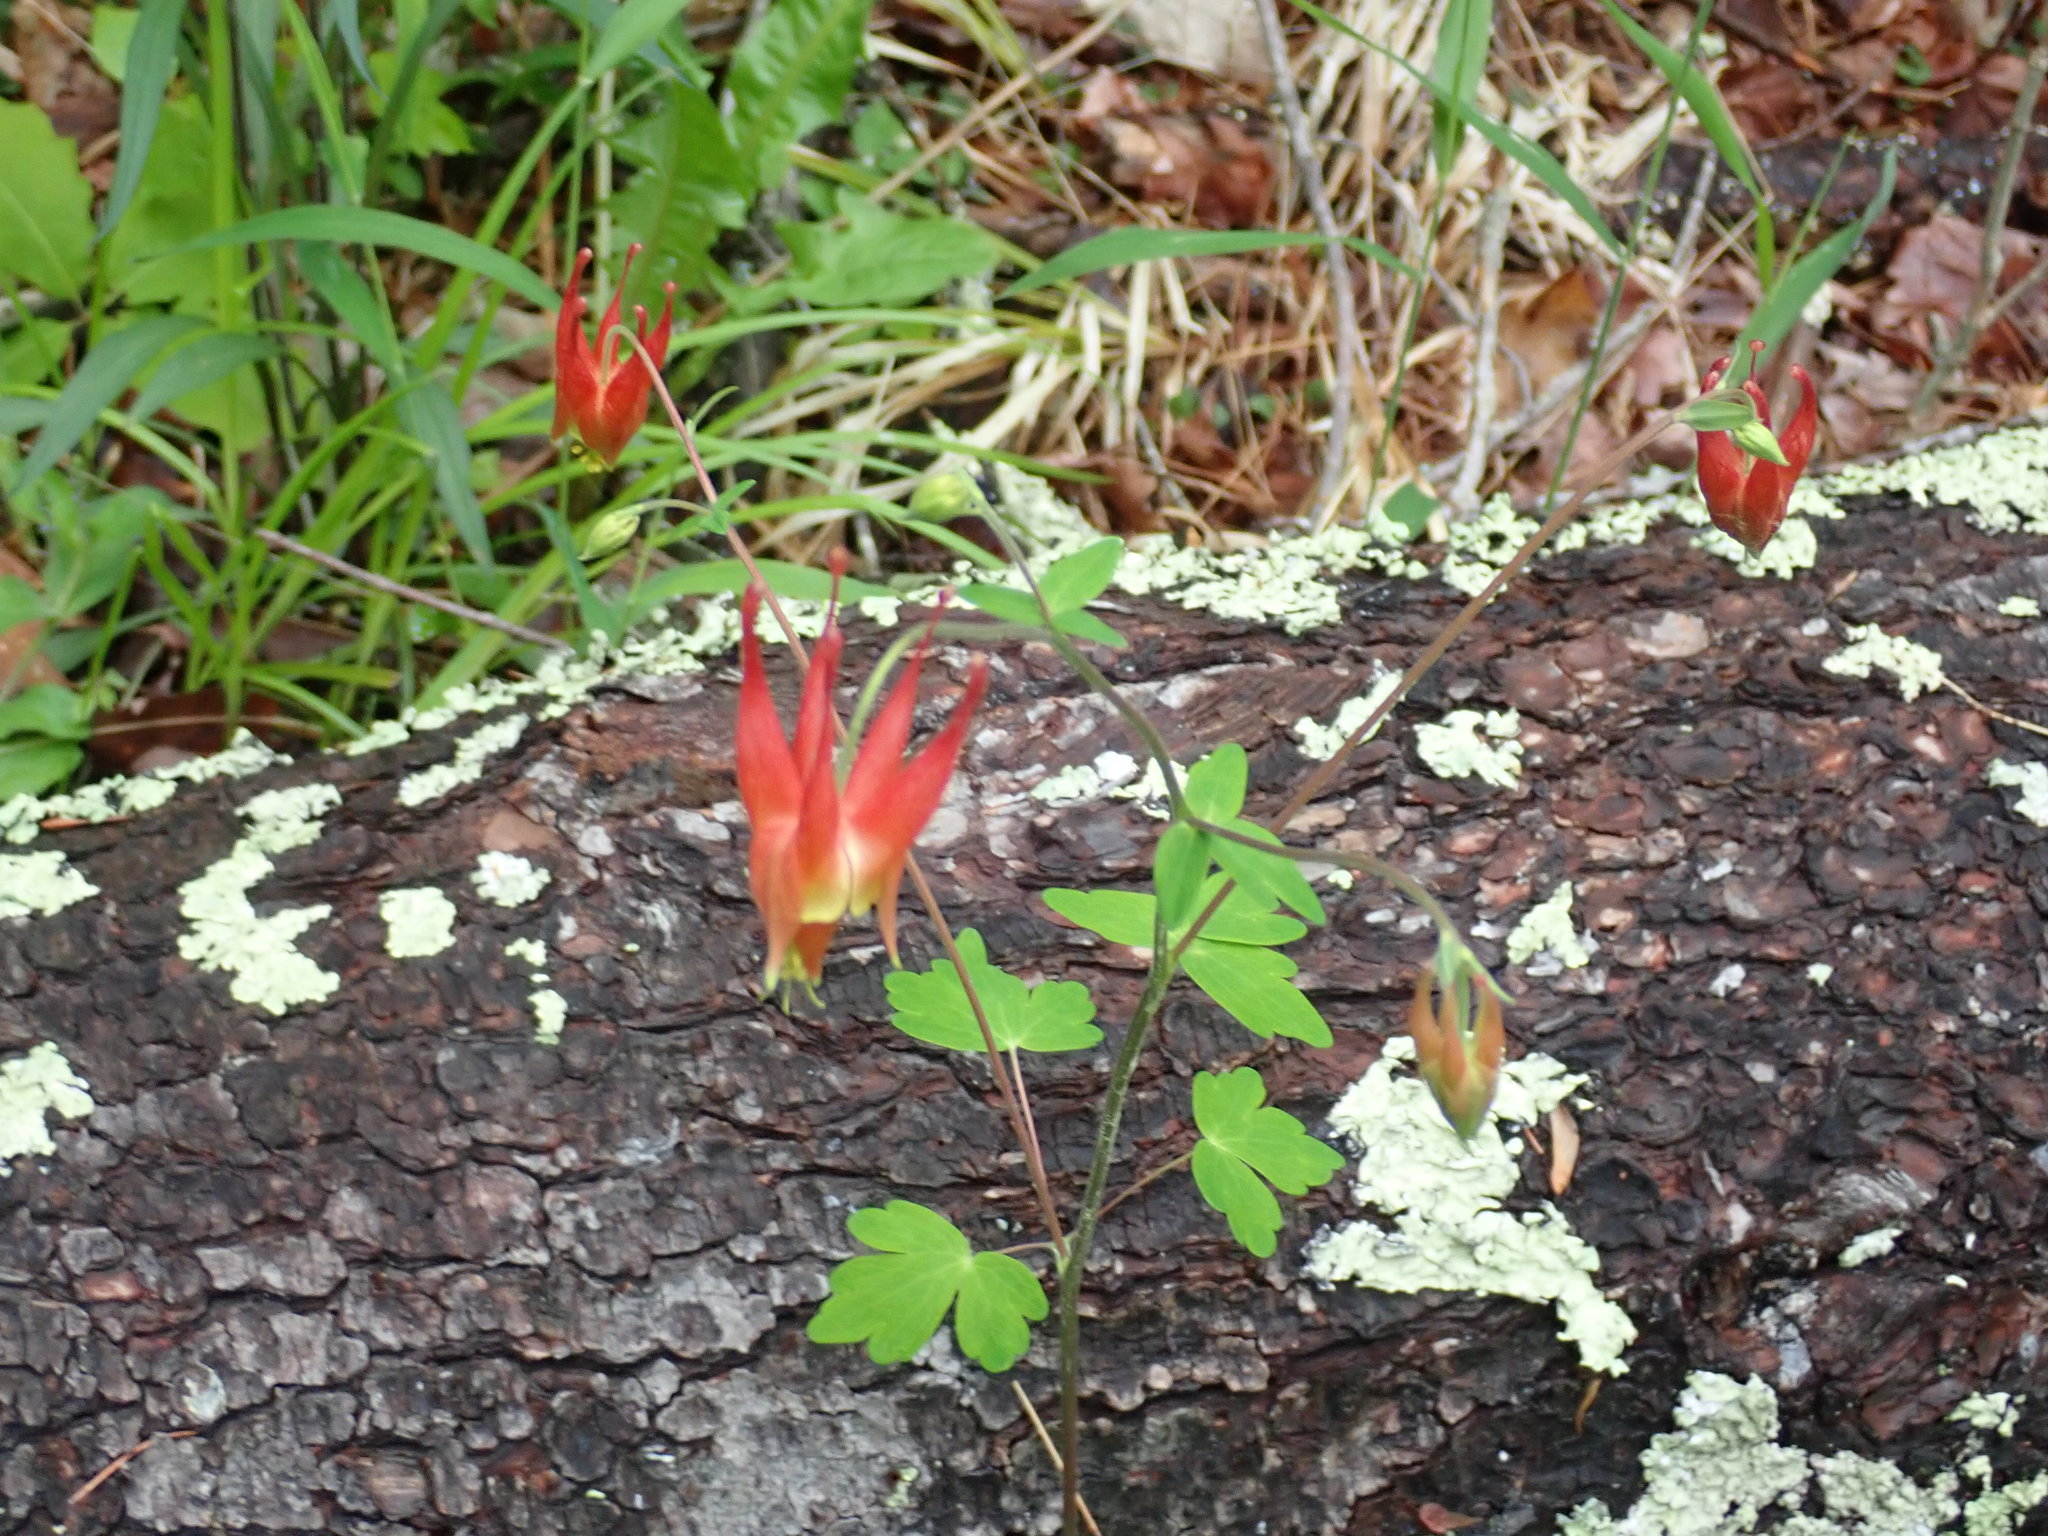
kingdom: Plantae
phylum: Tracheophyta
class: Magnoliopsida
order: Ranunculales
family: Ranunculaceae
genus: Aquilegia
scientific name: Aquilegia canadensis
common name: American columbine
